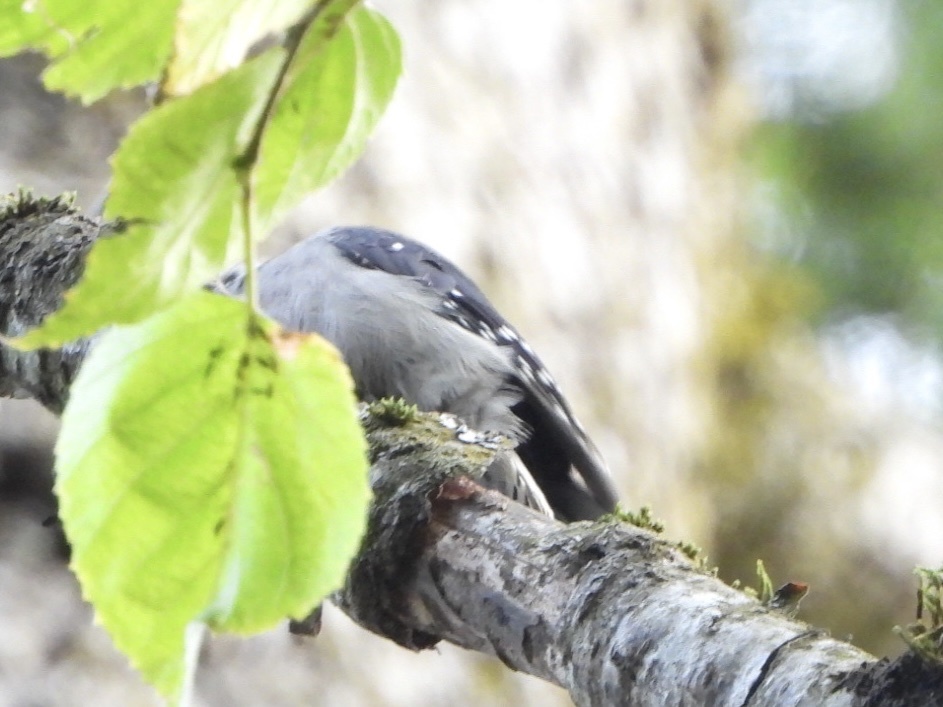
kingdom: Animalia
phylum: Chordata
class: Aves
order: Piciformes
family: Picidae
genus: Dryobates
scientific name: Dryobates pubescens
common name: Downy woodpecker
